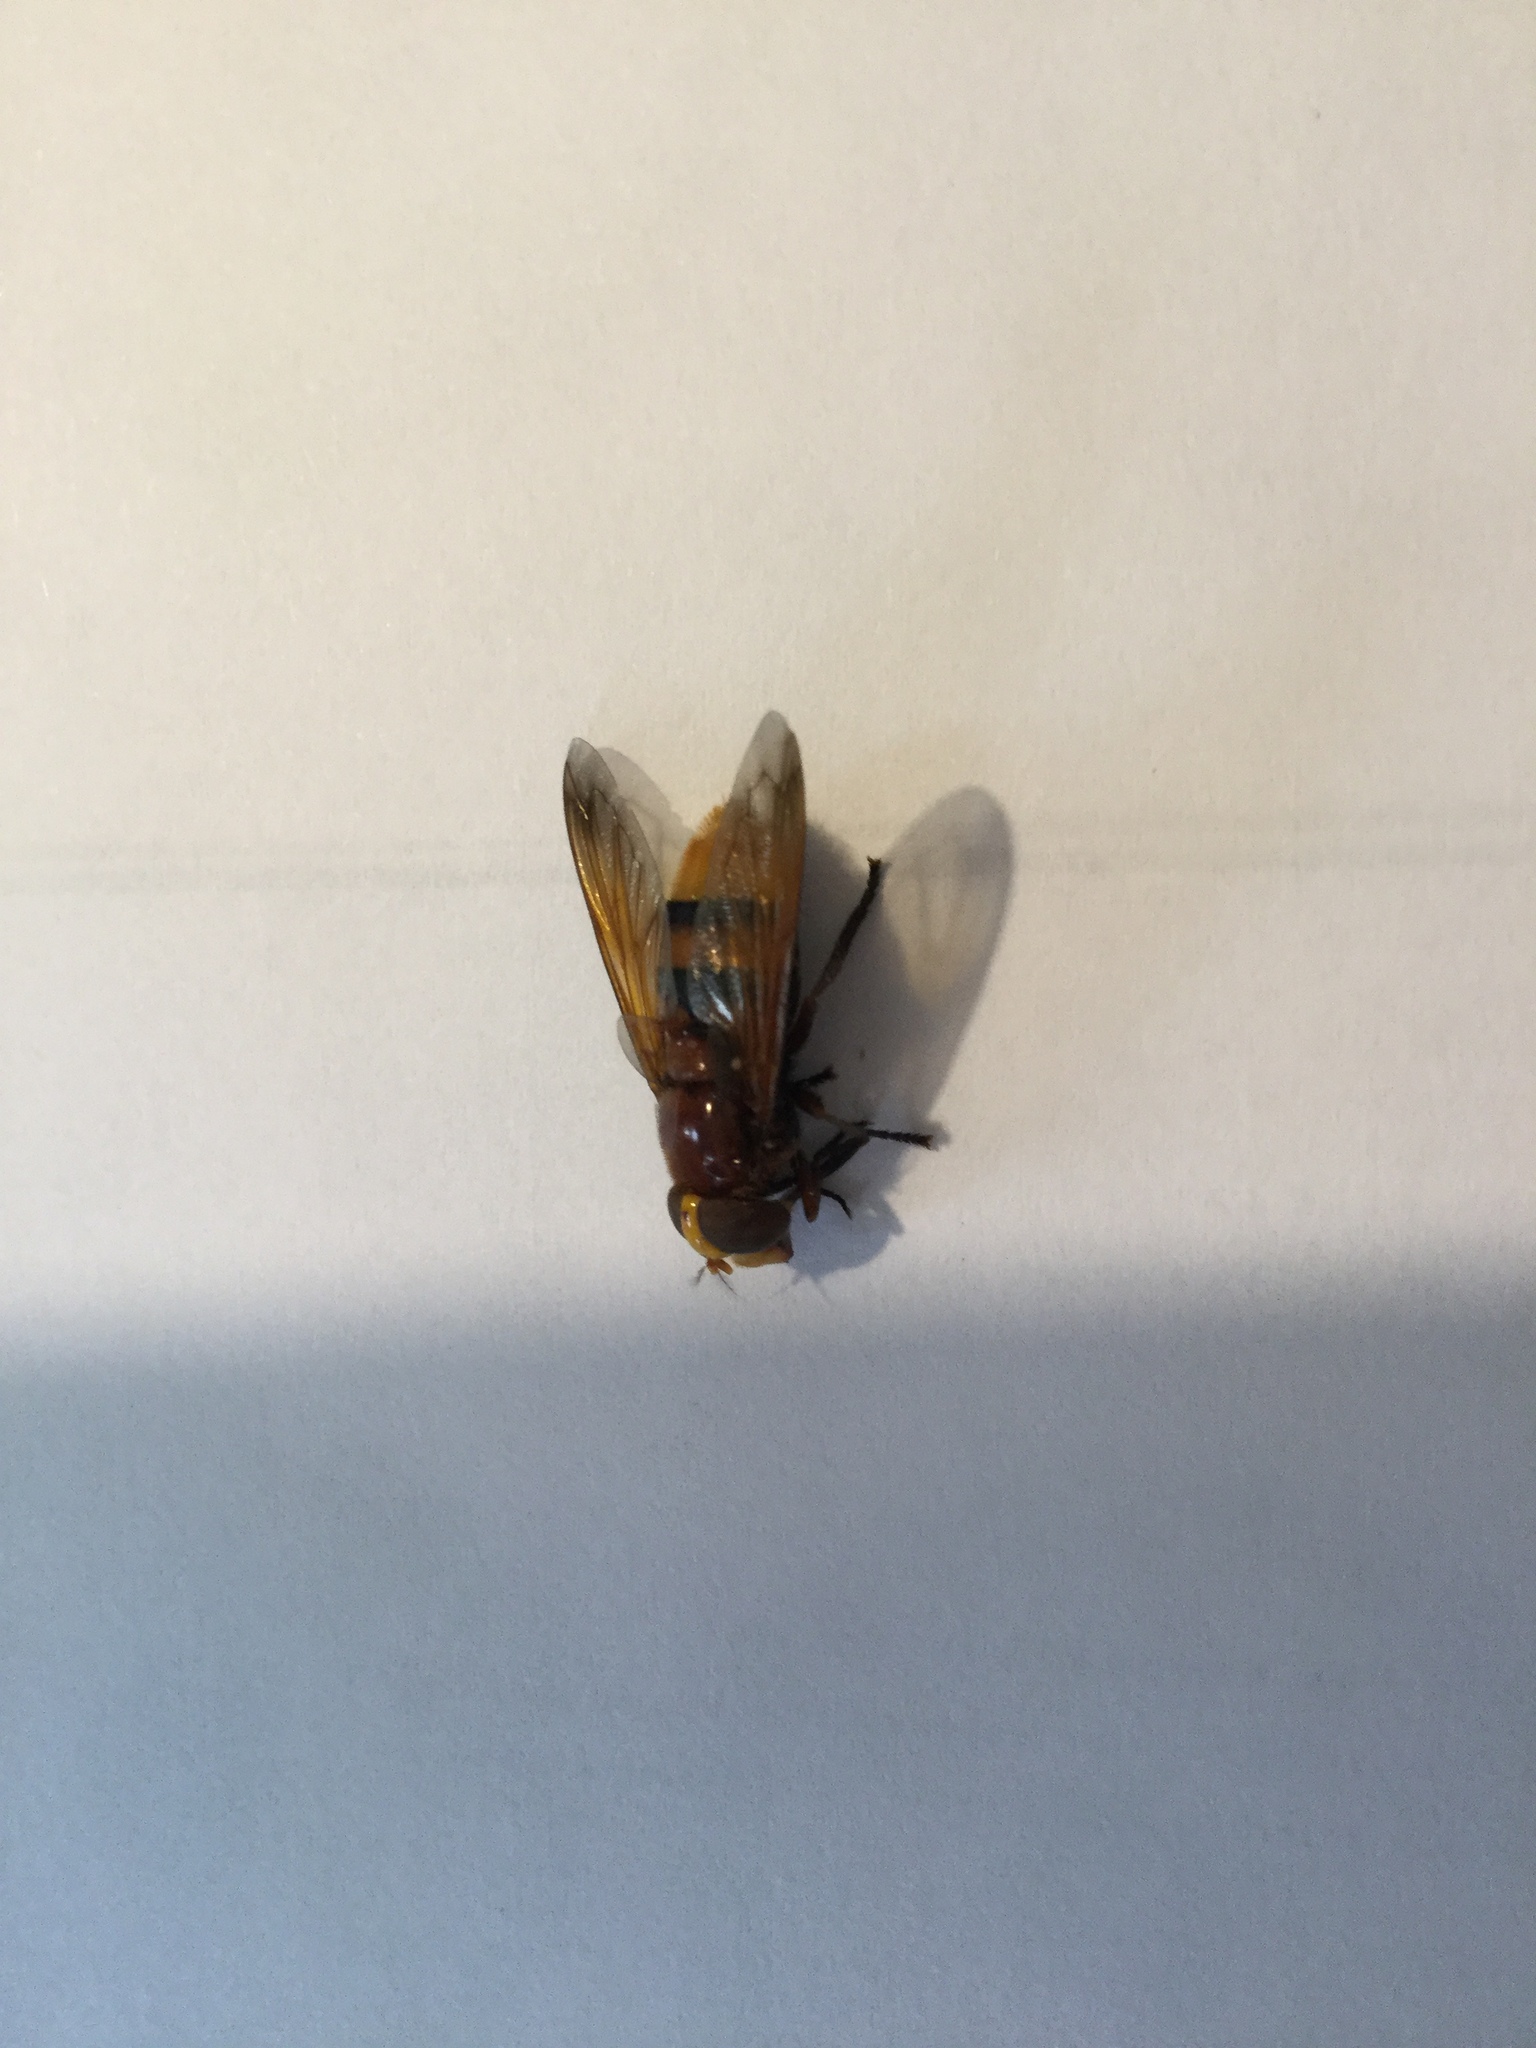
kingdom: Animalia
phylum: Arthropoda
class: Insecta
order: Diptera
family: Syrphidae
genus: Volucella
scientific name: Volucella zonaria
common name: Hornet hoverfly
